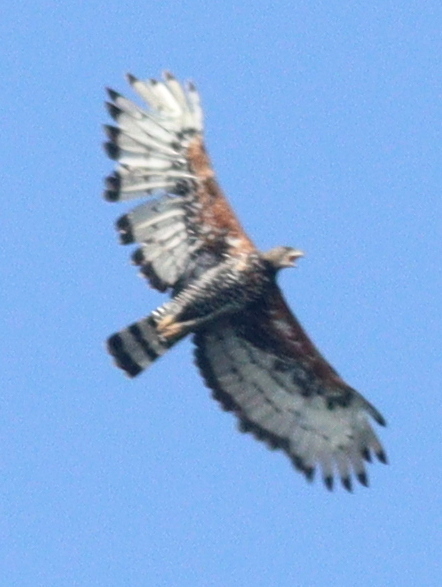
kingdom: Animalia
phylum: Chordata
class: Aves
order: Accipitriformes
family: Accipitridae
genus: Stephanoaetus
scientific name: Stephanoaetus coronatus
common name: Crowned eagle
